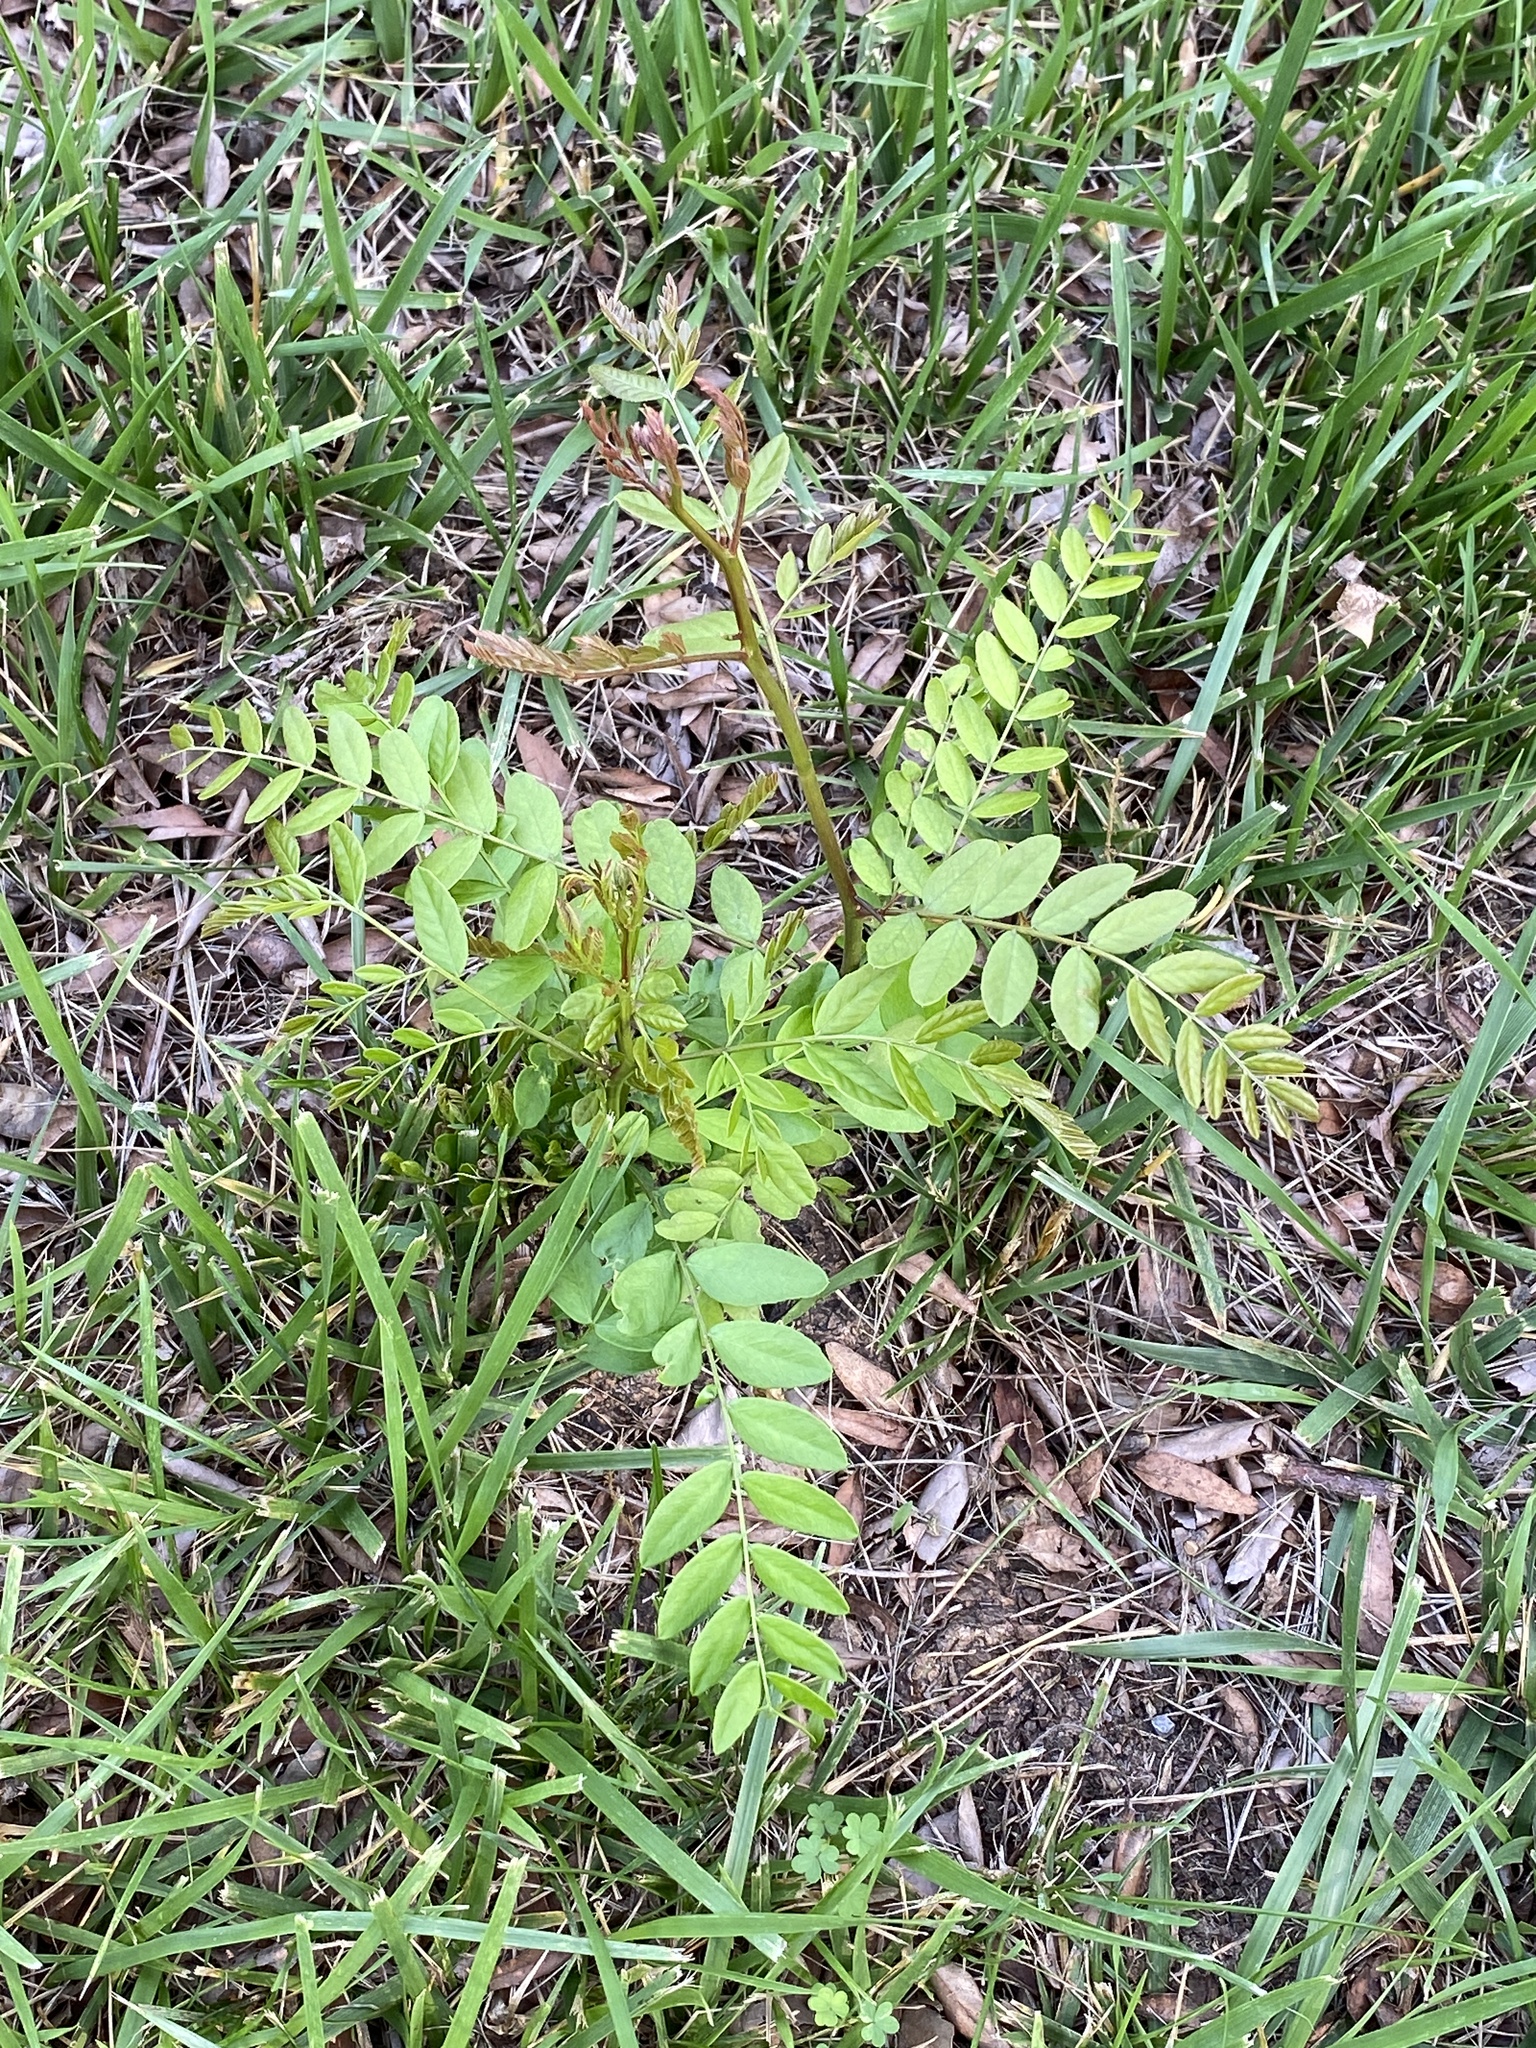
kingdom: Plantae
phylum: Tracheophyta
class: Magnoliopsida
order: Fabales
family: Fabaceae
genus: Gleditsia
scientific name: Gleditsia triacanthos
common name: Common honeylocust
